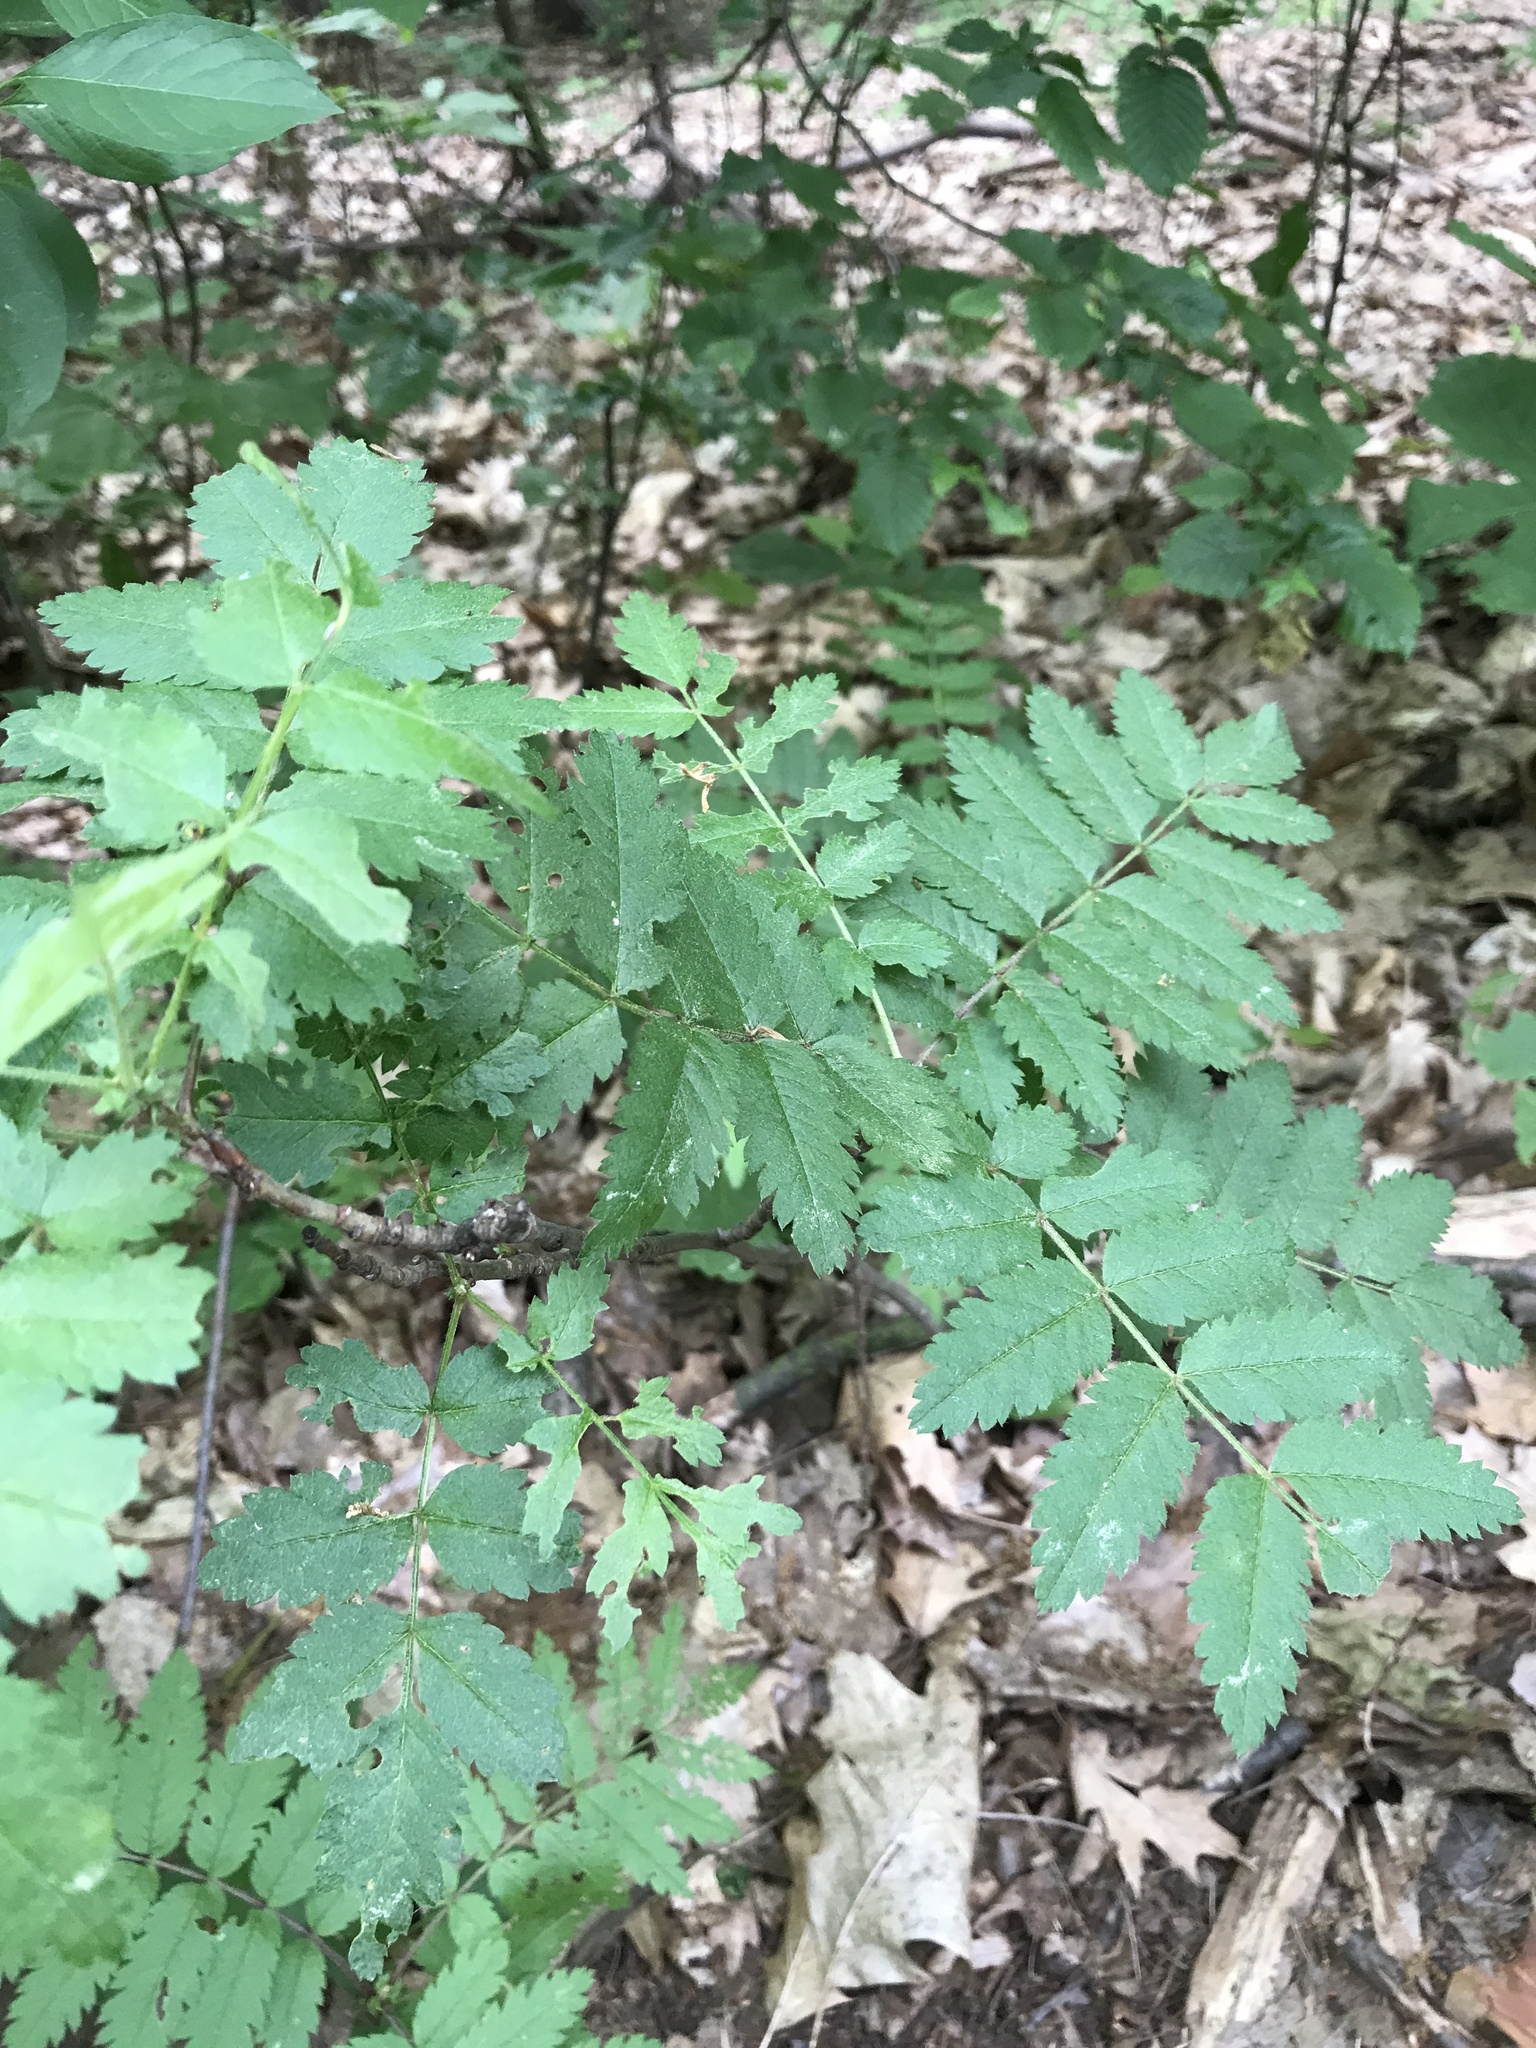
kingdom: Plantae
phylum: Tracheophyta
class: Magnoliopsida
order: Rosales
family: Rosaceae
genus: Sorbus
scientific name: Sorbus aucuparia
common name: Rowan
